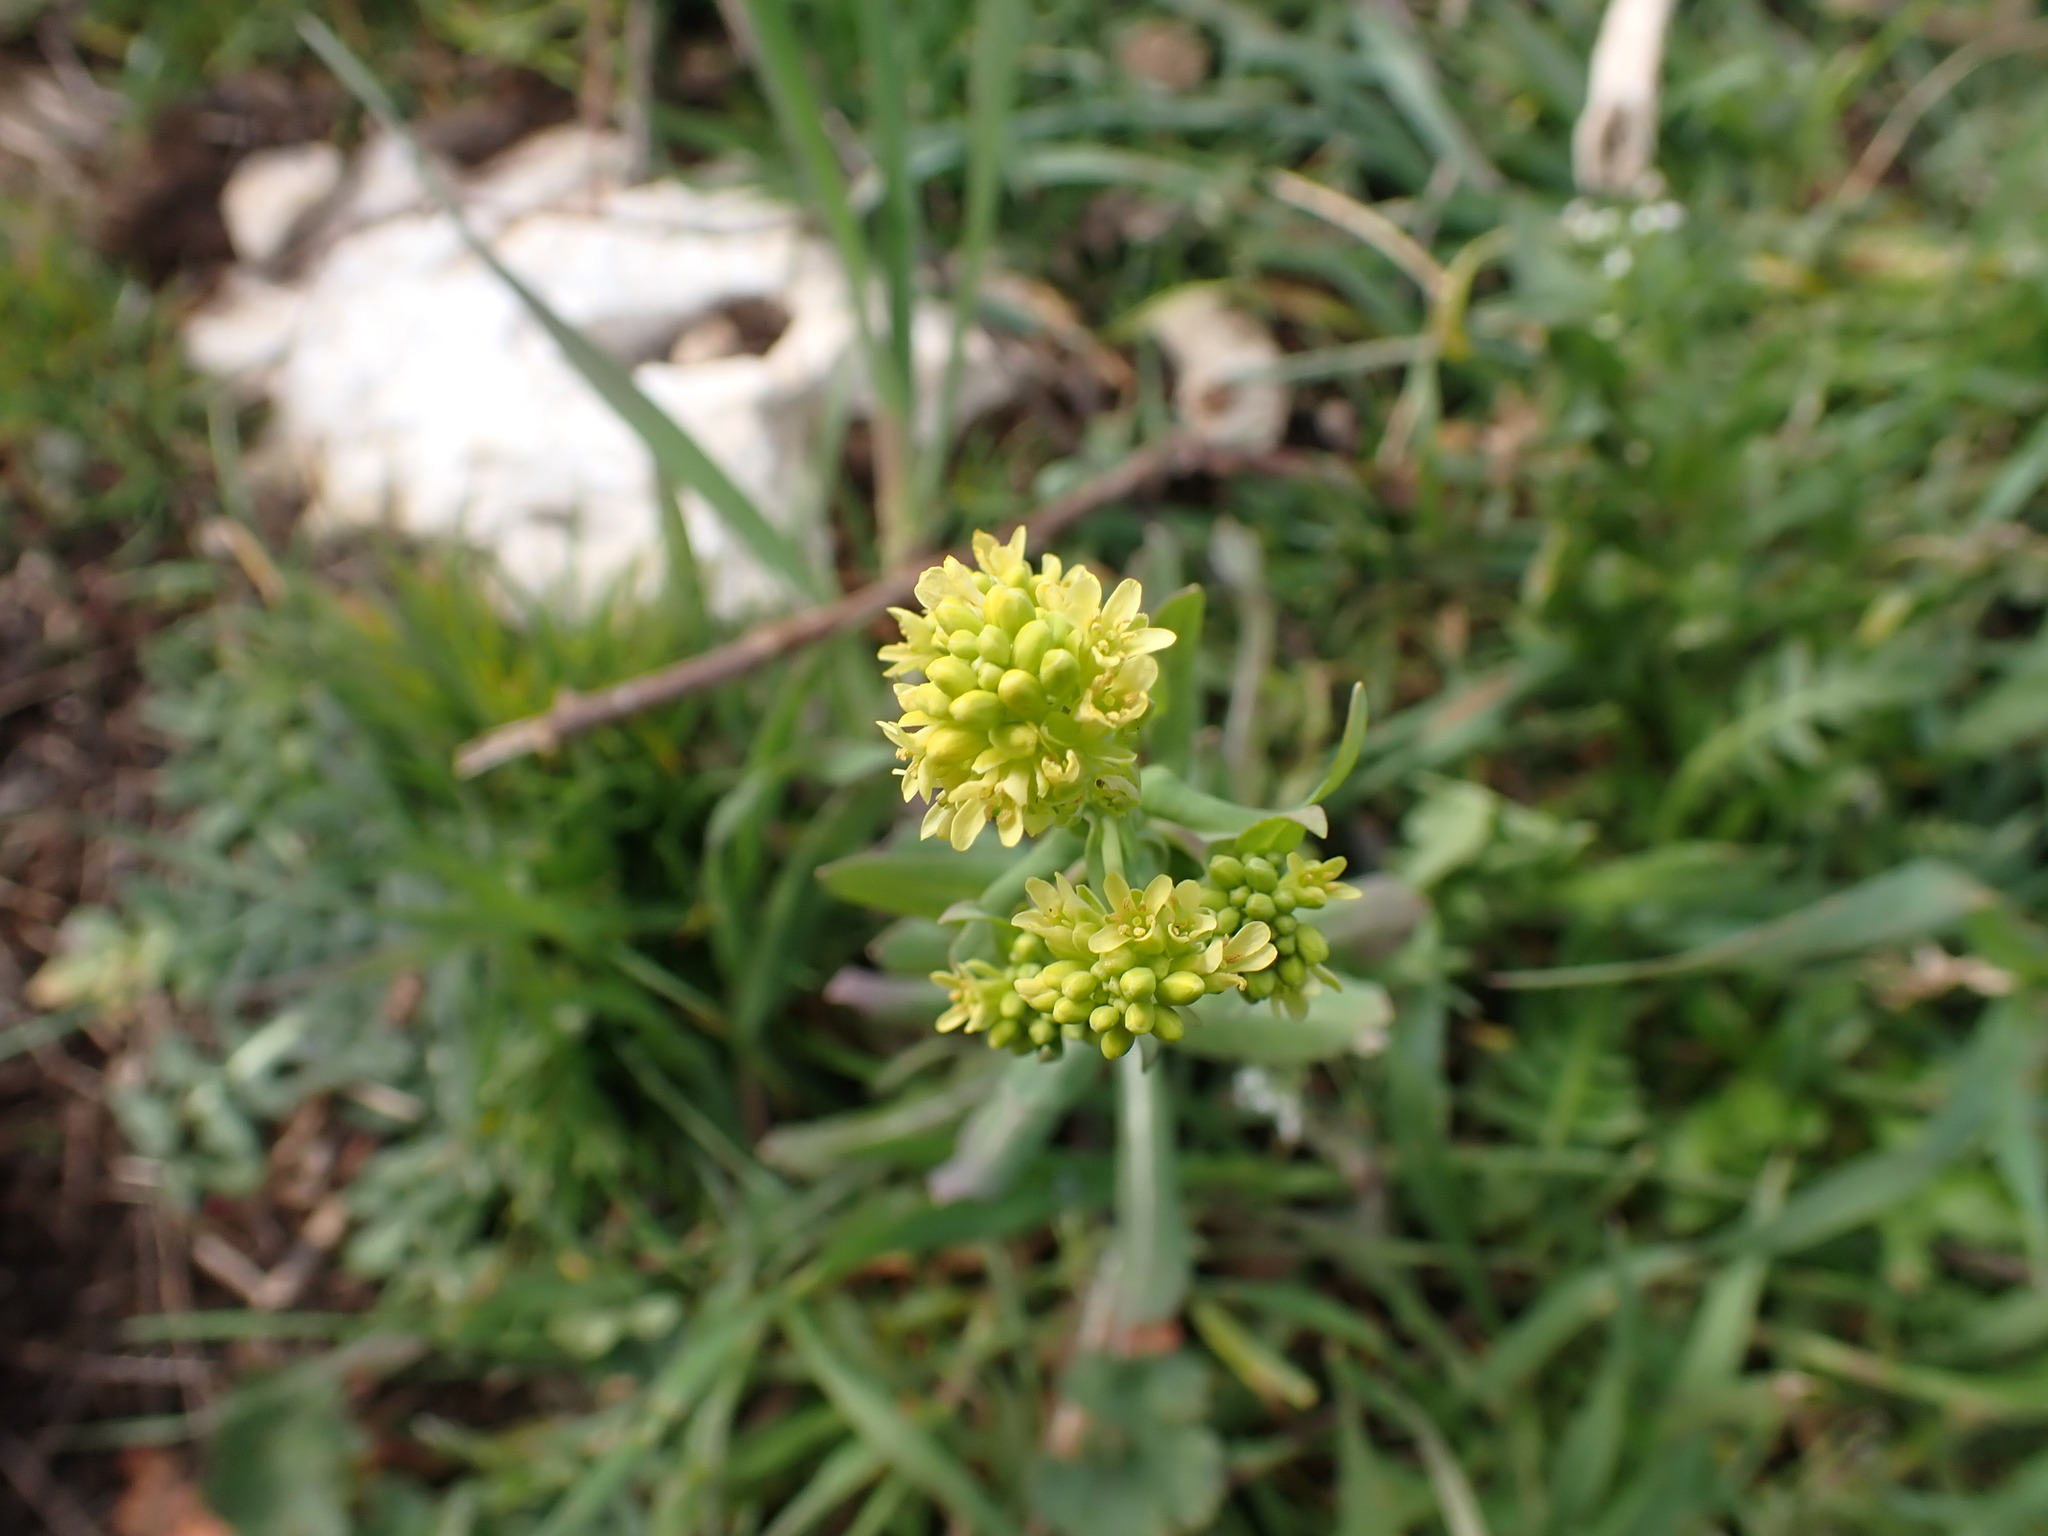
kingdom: Plantae
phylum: Tracheophyta
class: Magnoliopsida
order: Brassicales
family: Brassicaceae
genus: Myagrum
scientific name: Myagrum perfoliatum
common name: Mitre cress
